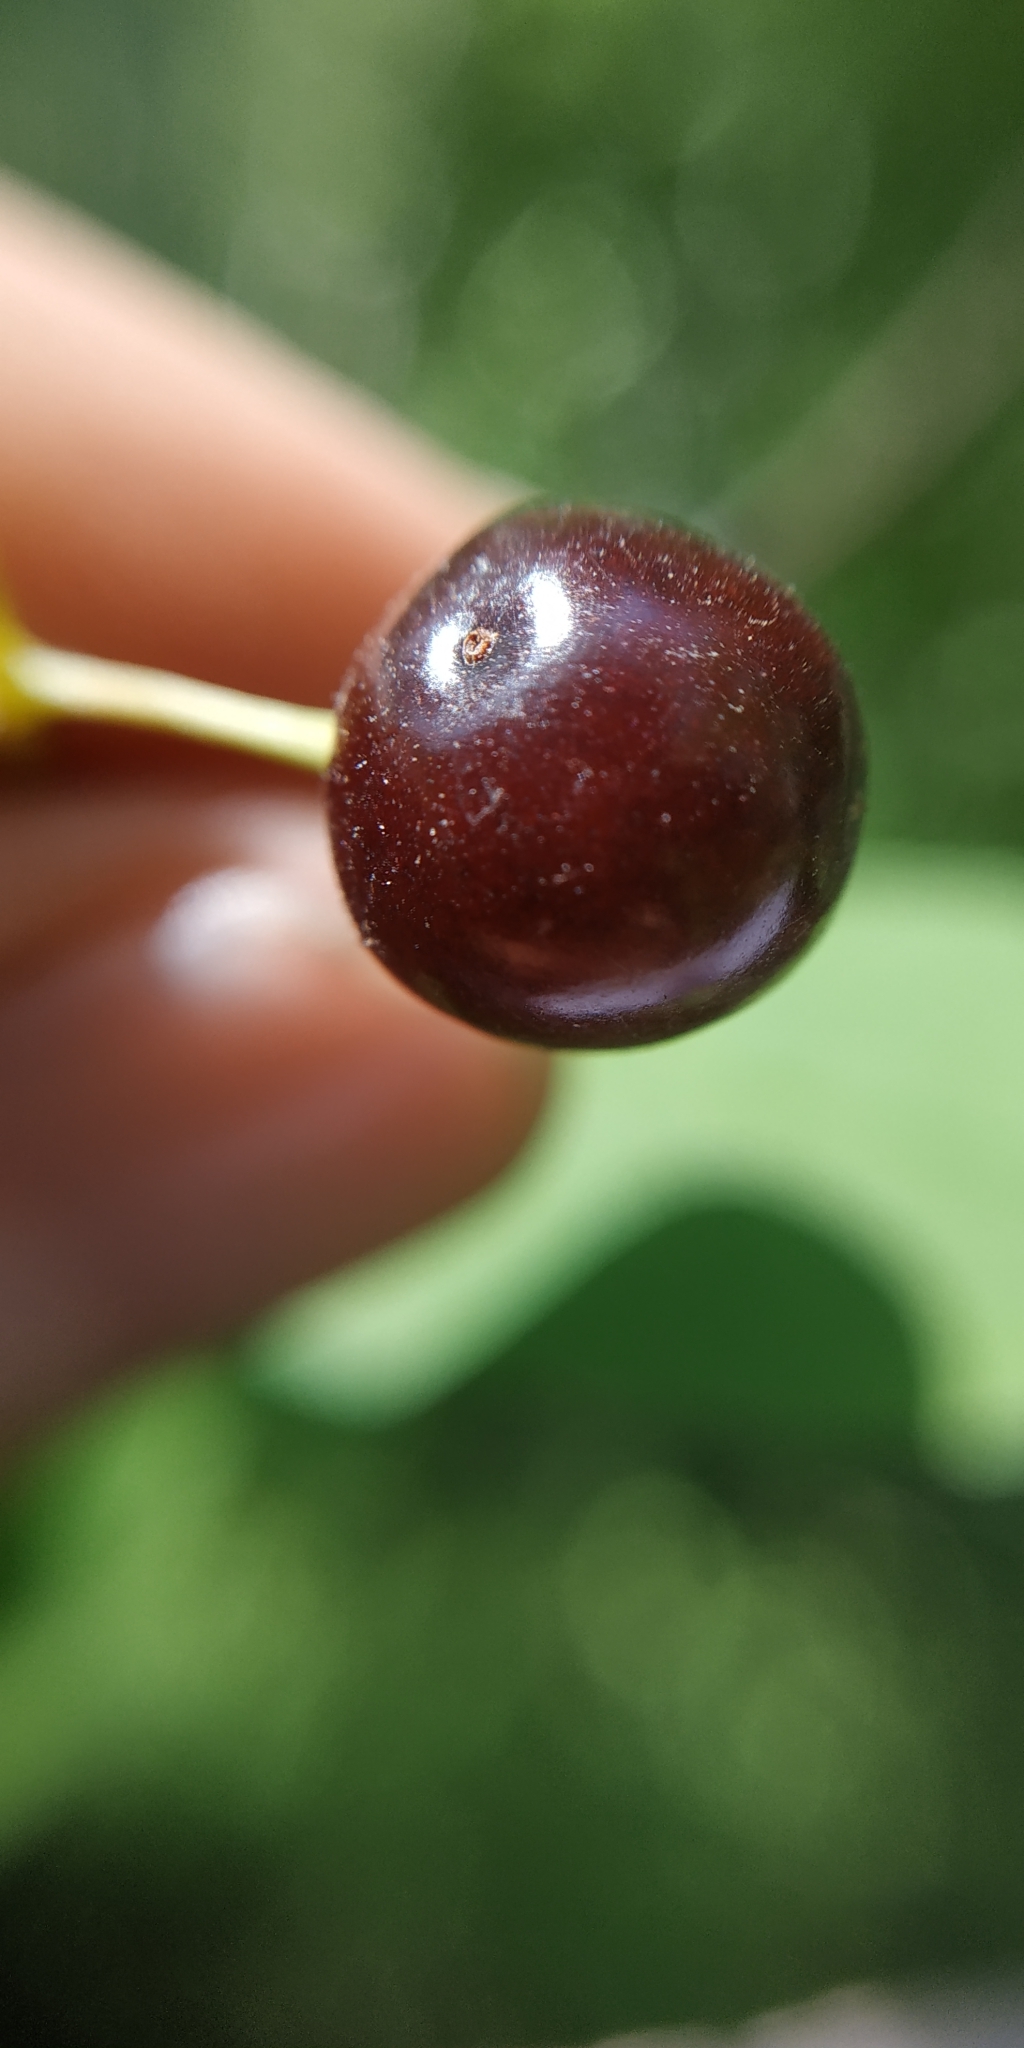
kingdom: Plantae
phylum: Tracheophyta
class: Magnoliopsida
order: Rosales
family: Rosaceae
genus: Prunus
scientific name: Prunus padus
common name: Bird cherry
